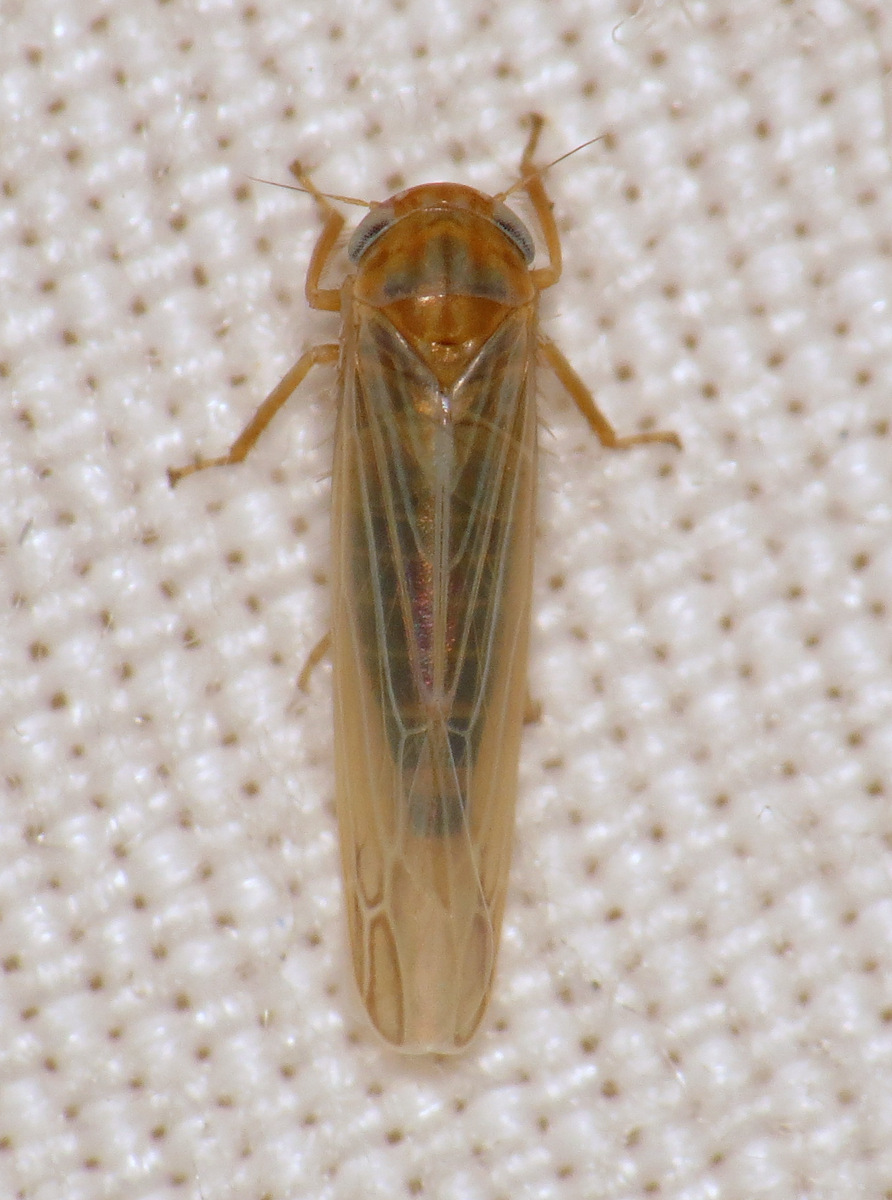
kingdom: Animalia
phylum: Arthropoda
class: Insecta
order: Hemiptera
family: Cicadellidae
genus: Balclutha
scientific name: Balclutha abdominalis
